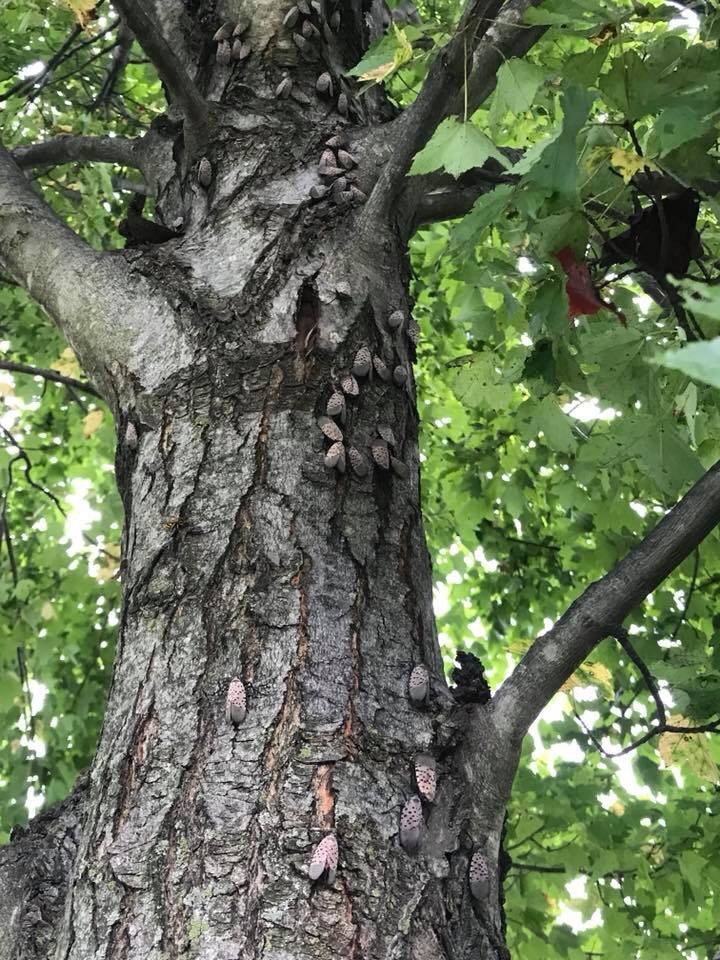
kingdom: Animalia
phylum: Arthropoda
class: Insecta
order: Hemiptera
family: Fulgoridae
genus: Lycorma
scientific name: Lycorma delicatula
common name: Spotted lanternfly
